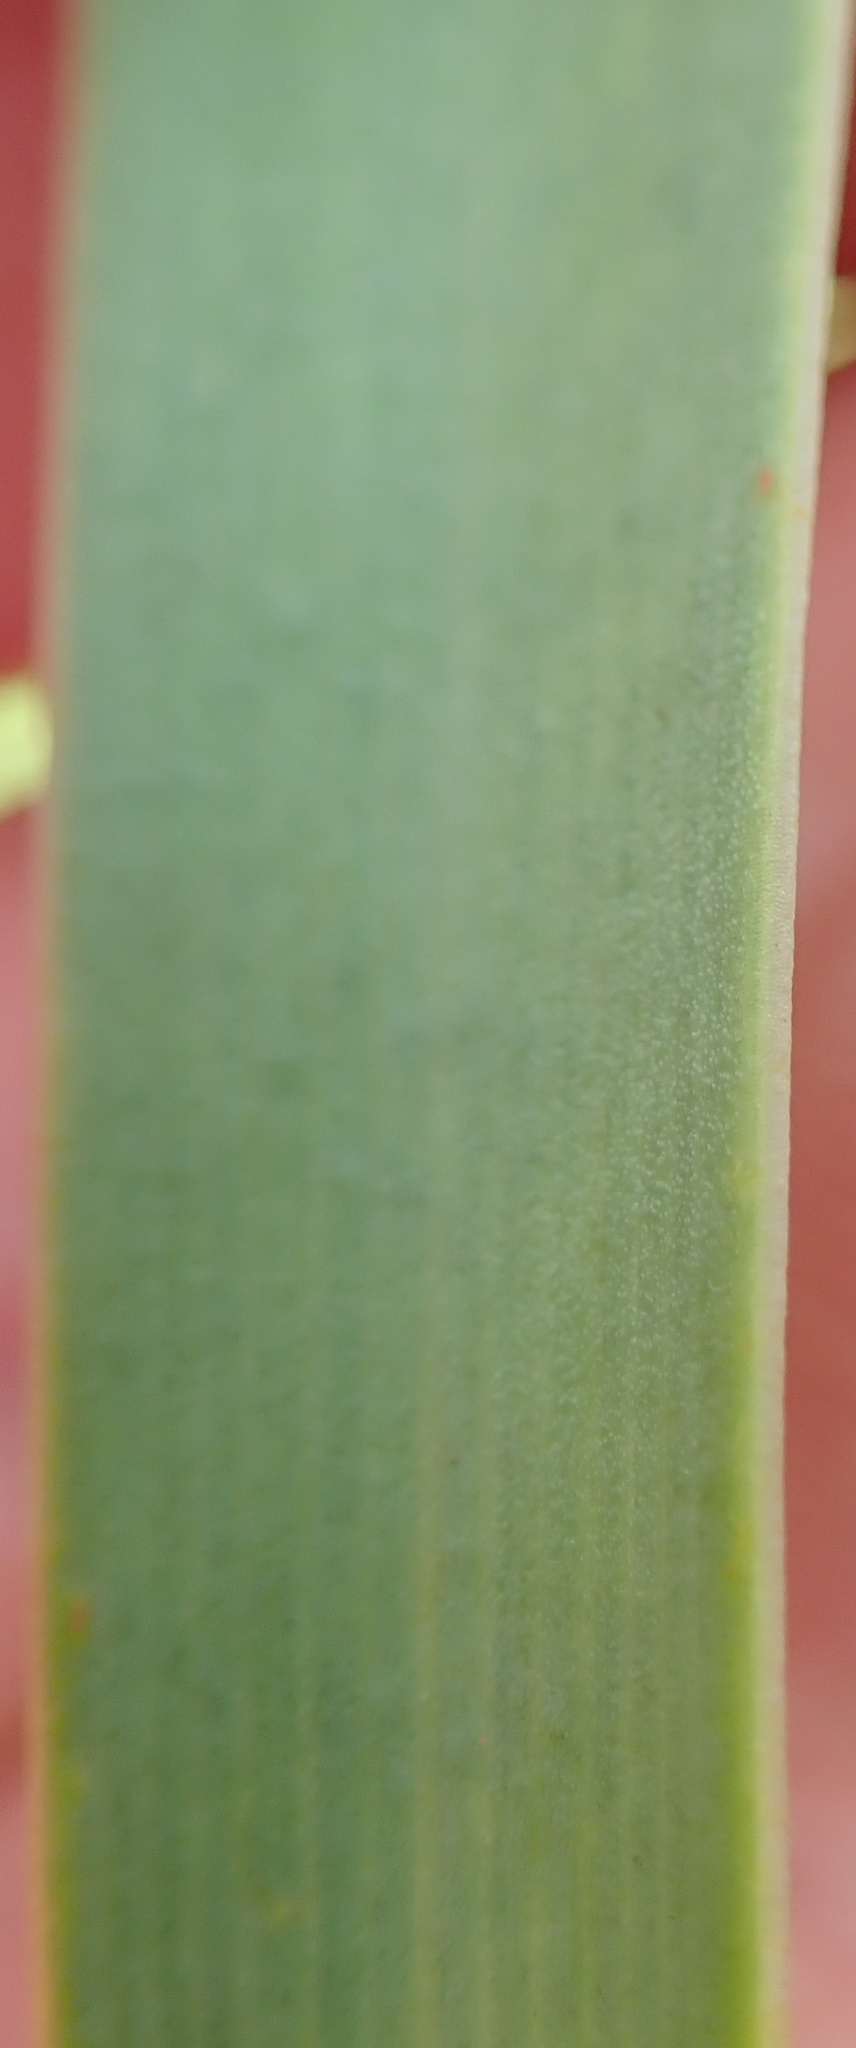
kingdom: Plantae
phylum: Tracheophyta
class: Liliopsida
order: Asparagales
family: Amaryllidaceae
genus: Agapanthus
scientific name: Agapanthus campanulatus
